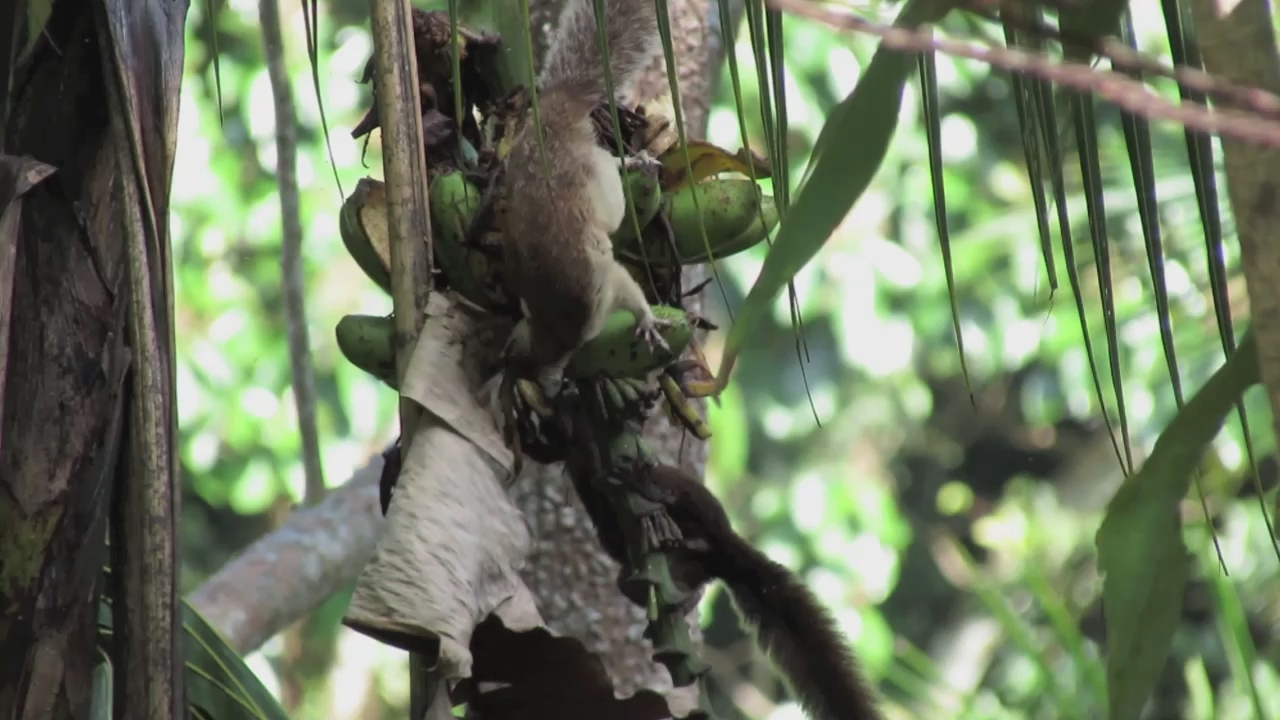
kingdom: Animalia
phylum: Chordata
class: Mammalia
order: Rodentia
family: Sciuridae
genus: Sciurus
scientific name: Sciurus variegatoides
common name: Variegated squirrel
